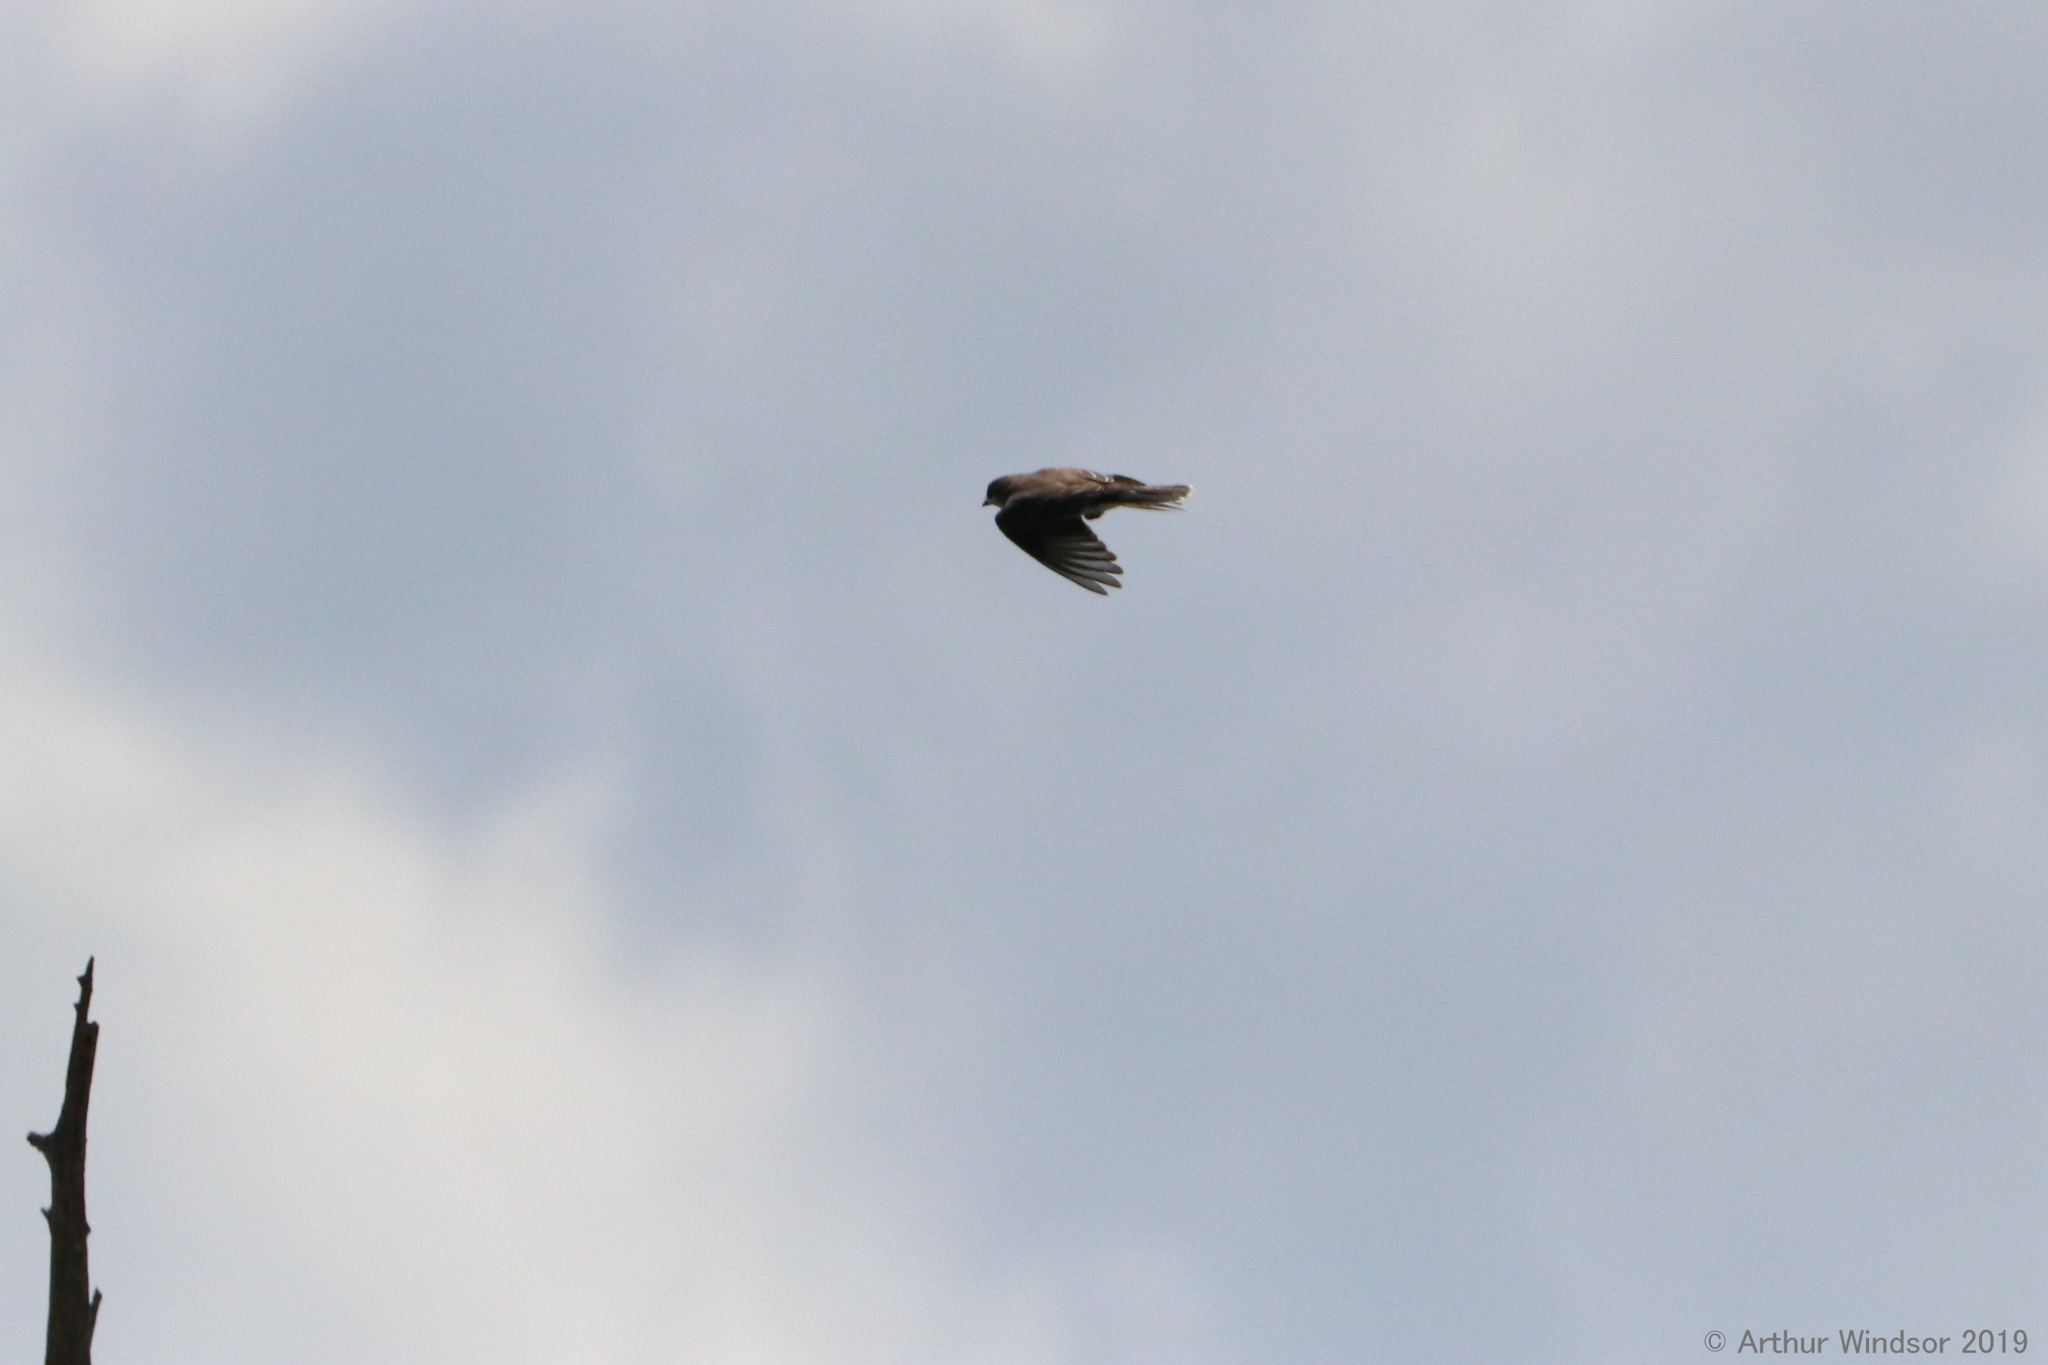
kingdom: Animalia
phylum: Chordata
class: Aves
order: Passeriformes
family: Tyrannidae
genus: Tyrannus
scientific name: Tyrannus tyrannus
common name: Eastern kingbird
